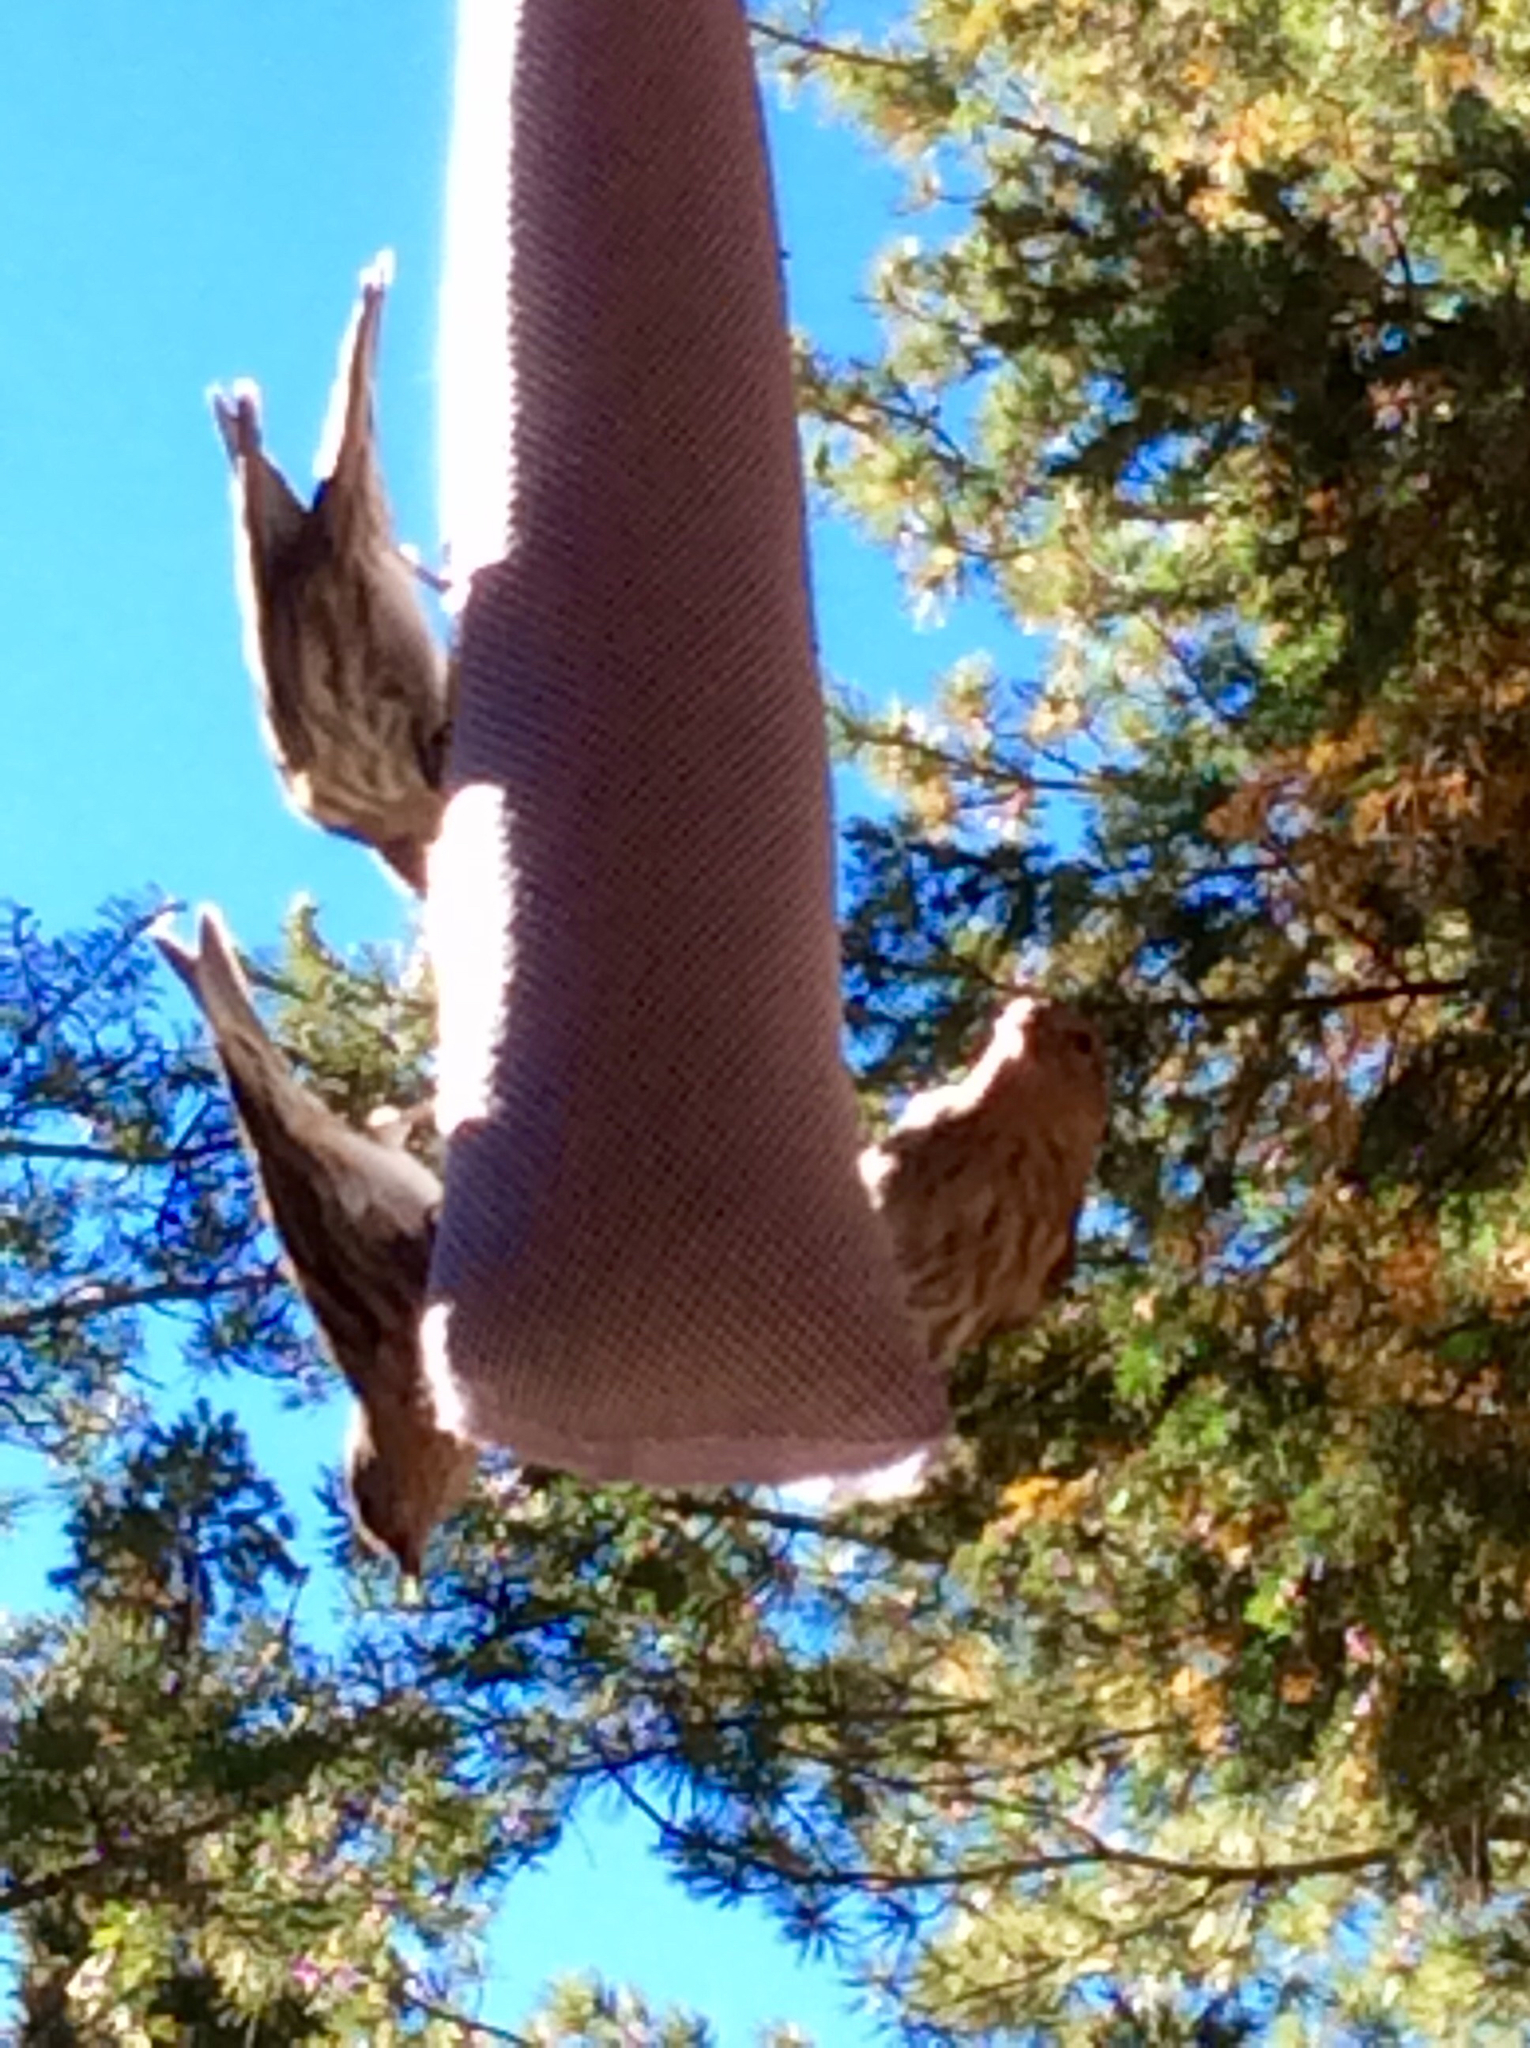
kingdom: Animalia
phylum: Chordata
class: Aves
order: Passeriformes
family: Fringillidae
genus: Spinus
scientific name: Spinus pinus
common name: Pine siskin
